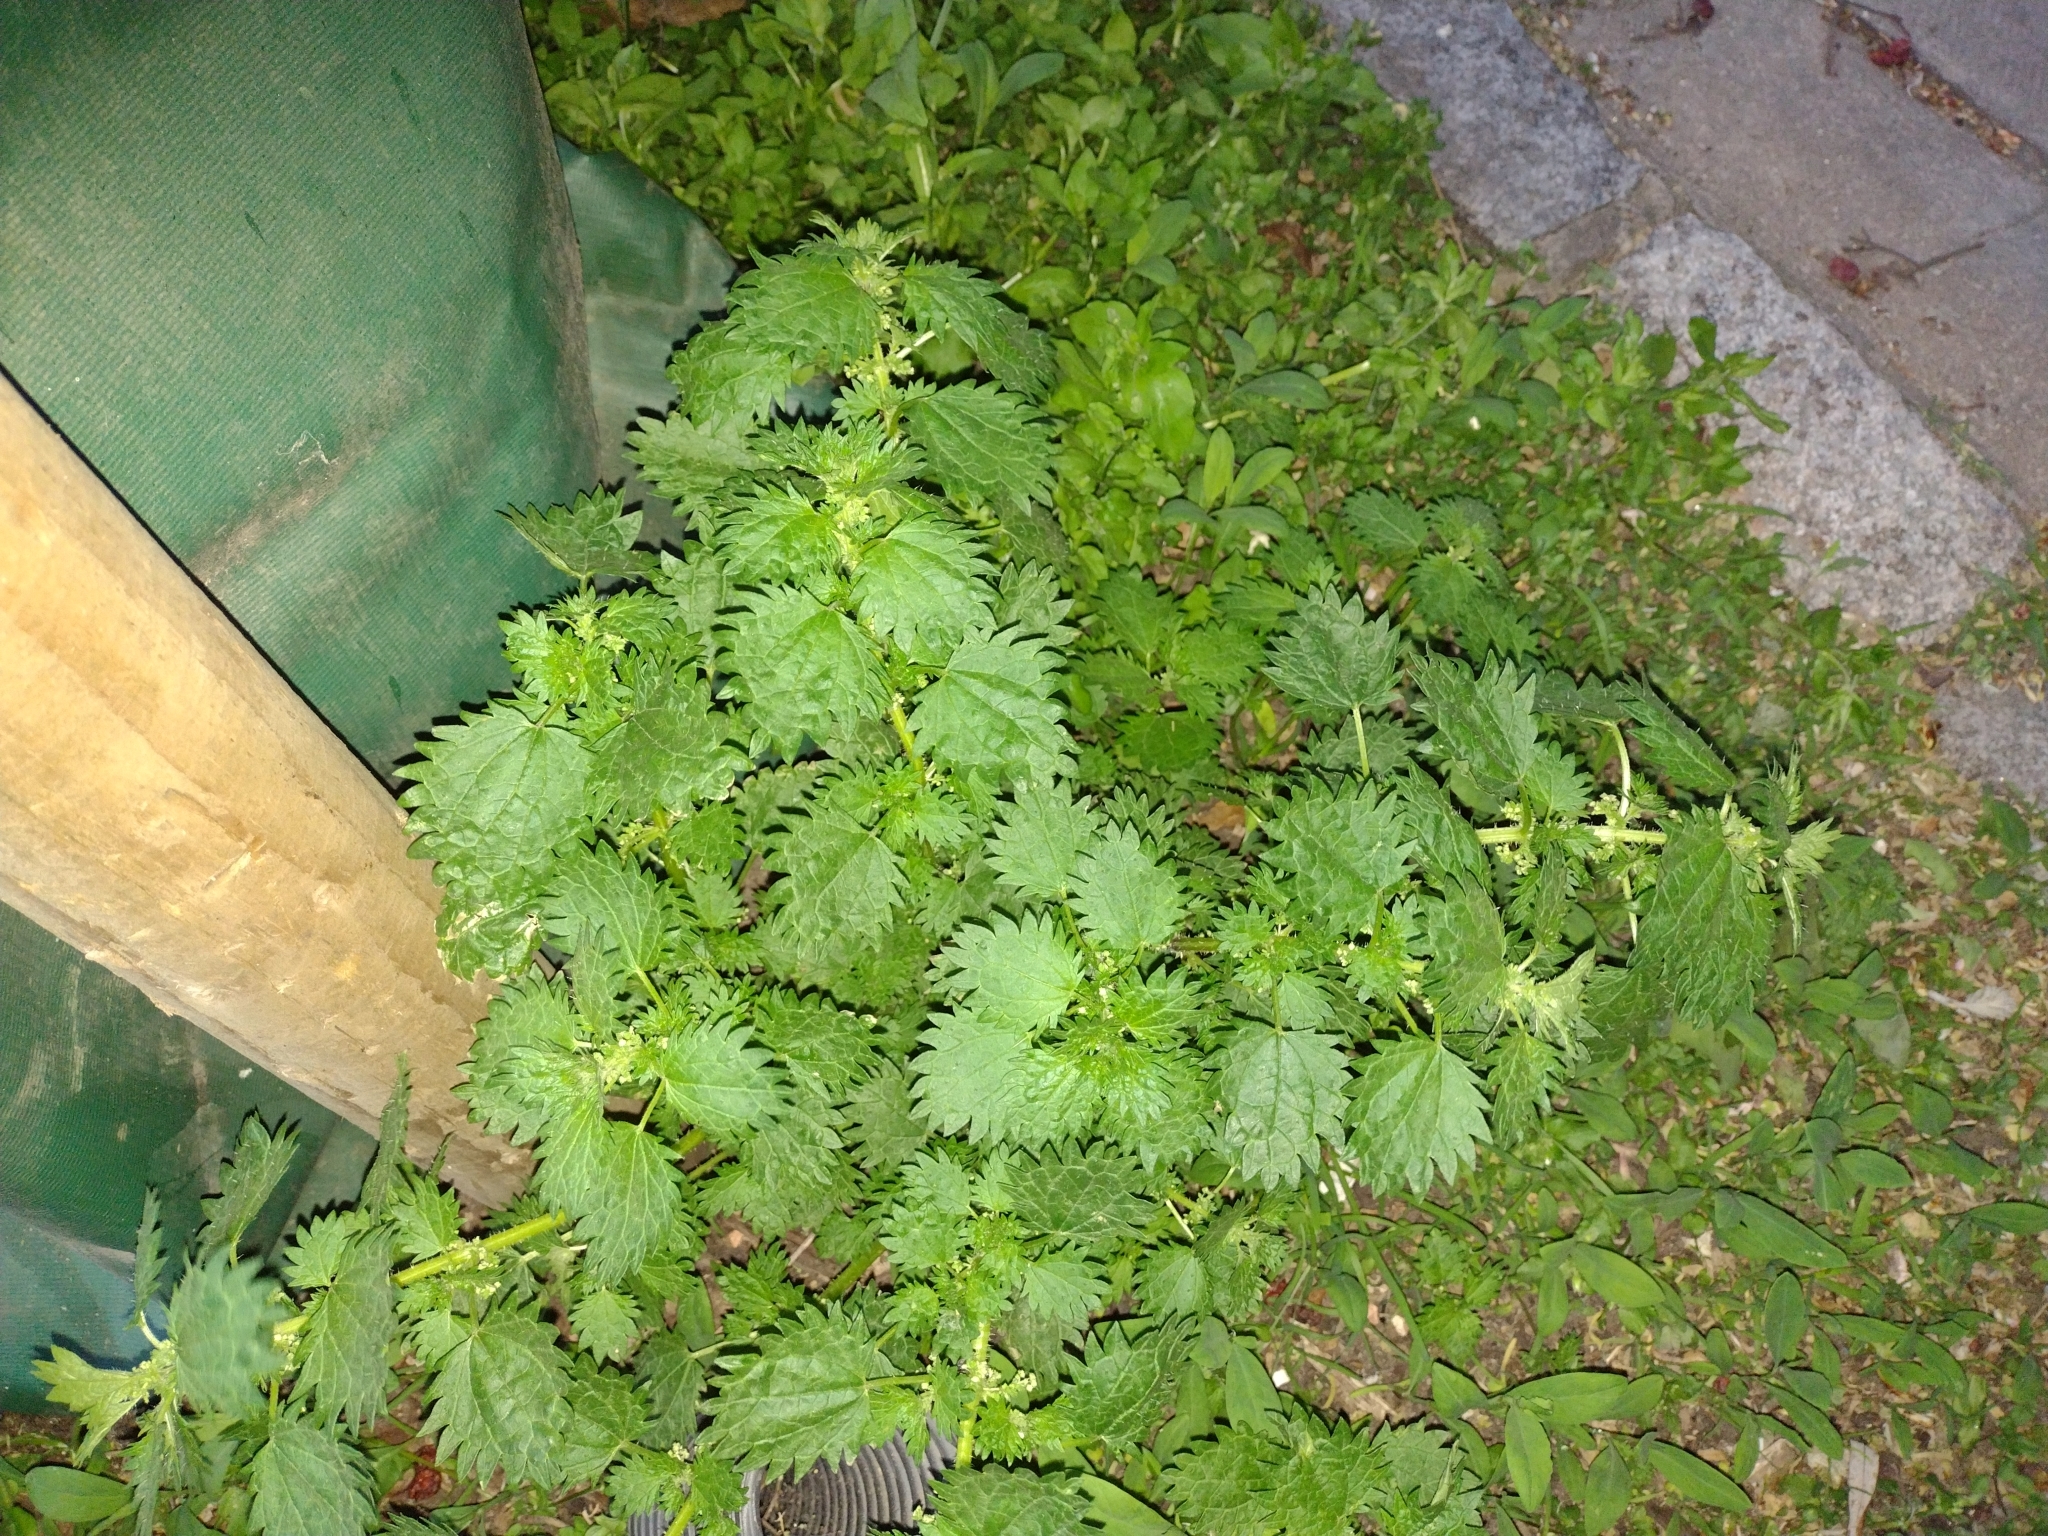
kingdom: Plantae
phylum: Tracheophyta
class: Magnoliopsida
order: Rosales
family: Urticaceae
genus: Urtica
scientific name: Urtica urens
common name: Dwarf nettle
